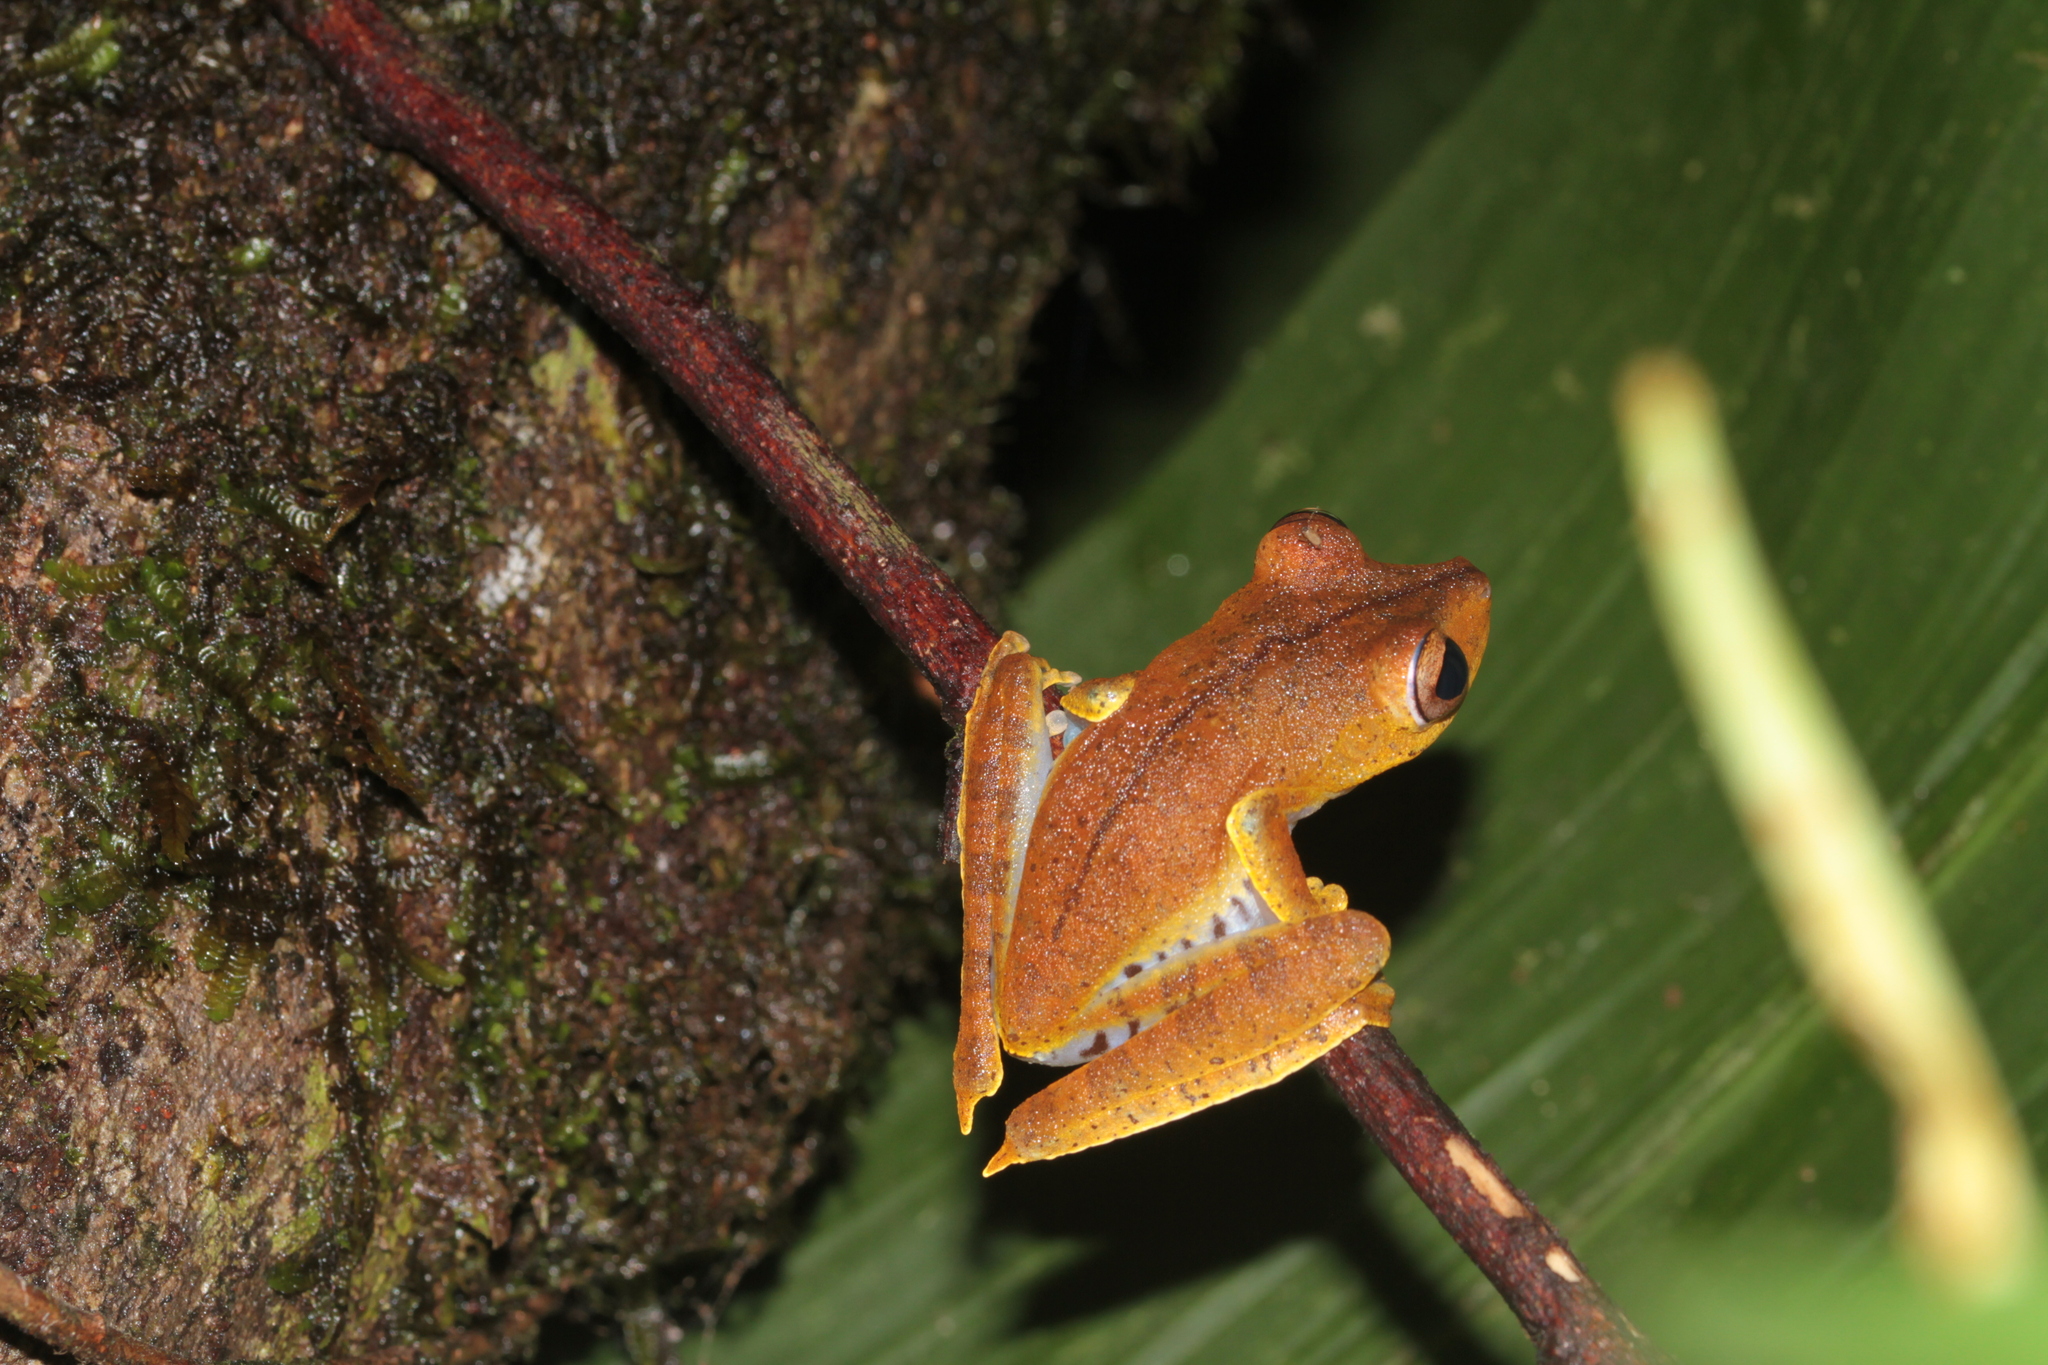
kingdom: Animalia
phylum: Chordata
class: Amphibia
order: Anura
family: Hylidae
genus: Boana
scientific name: Boana calcarata
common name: Blue-flanked treefrog
